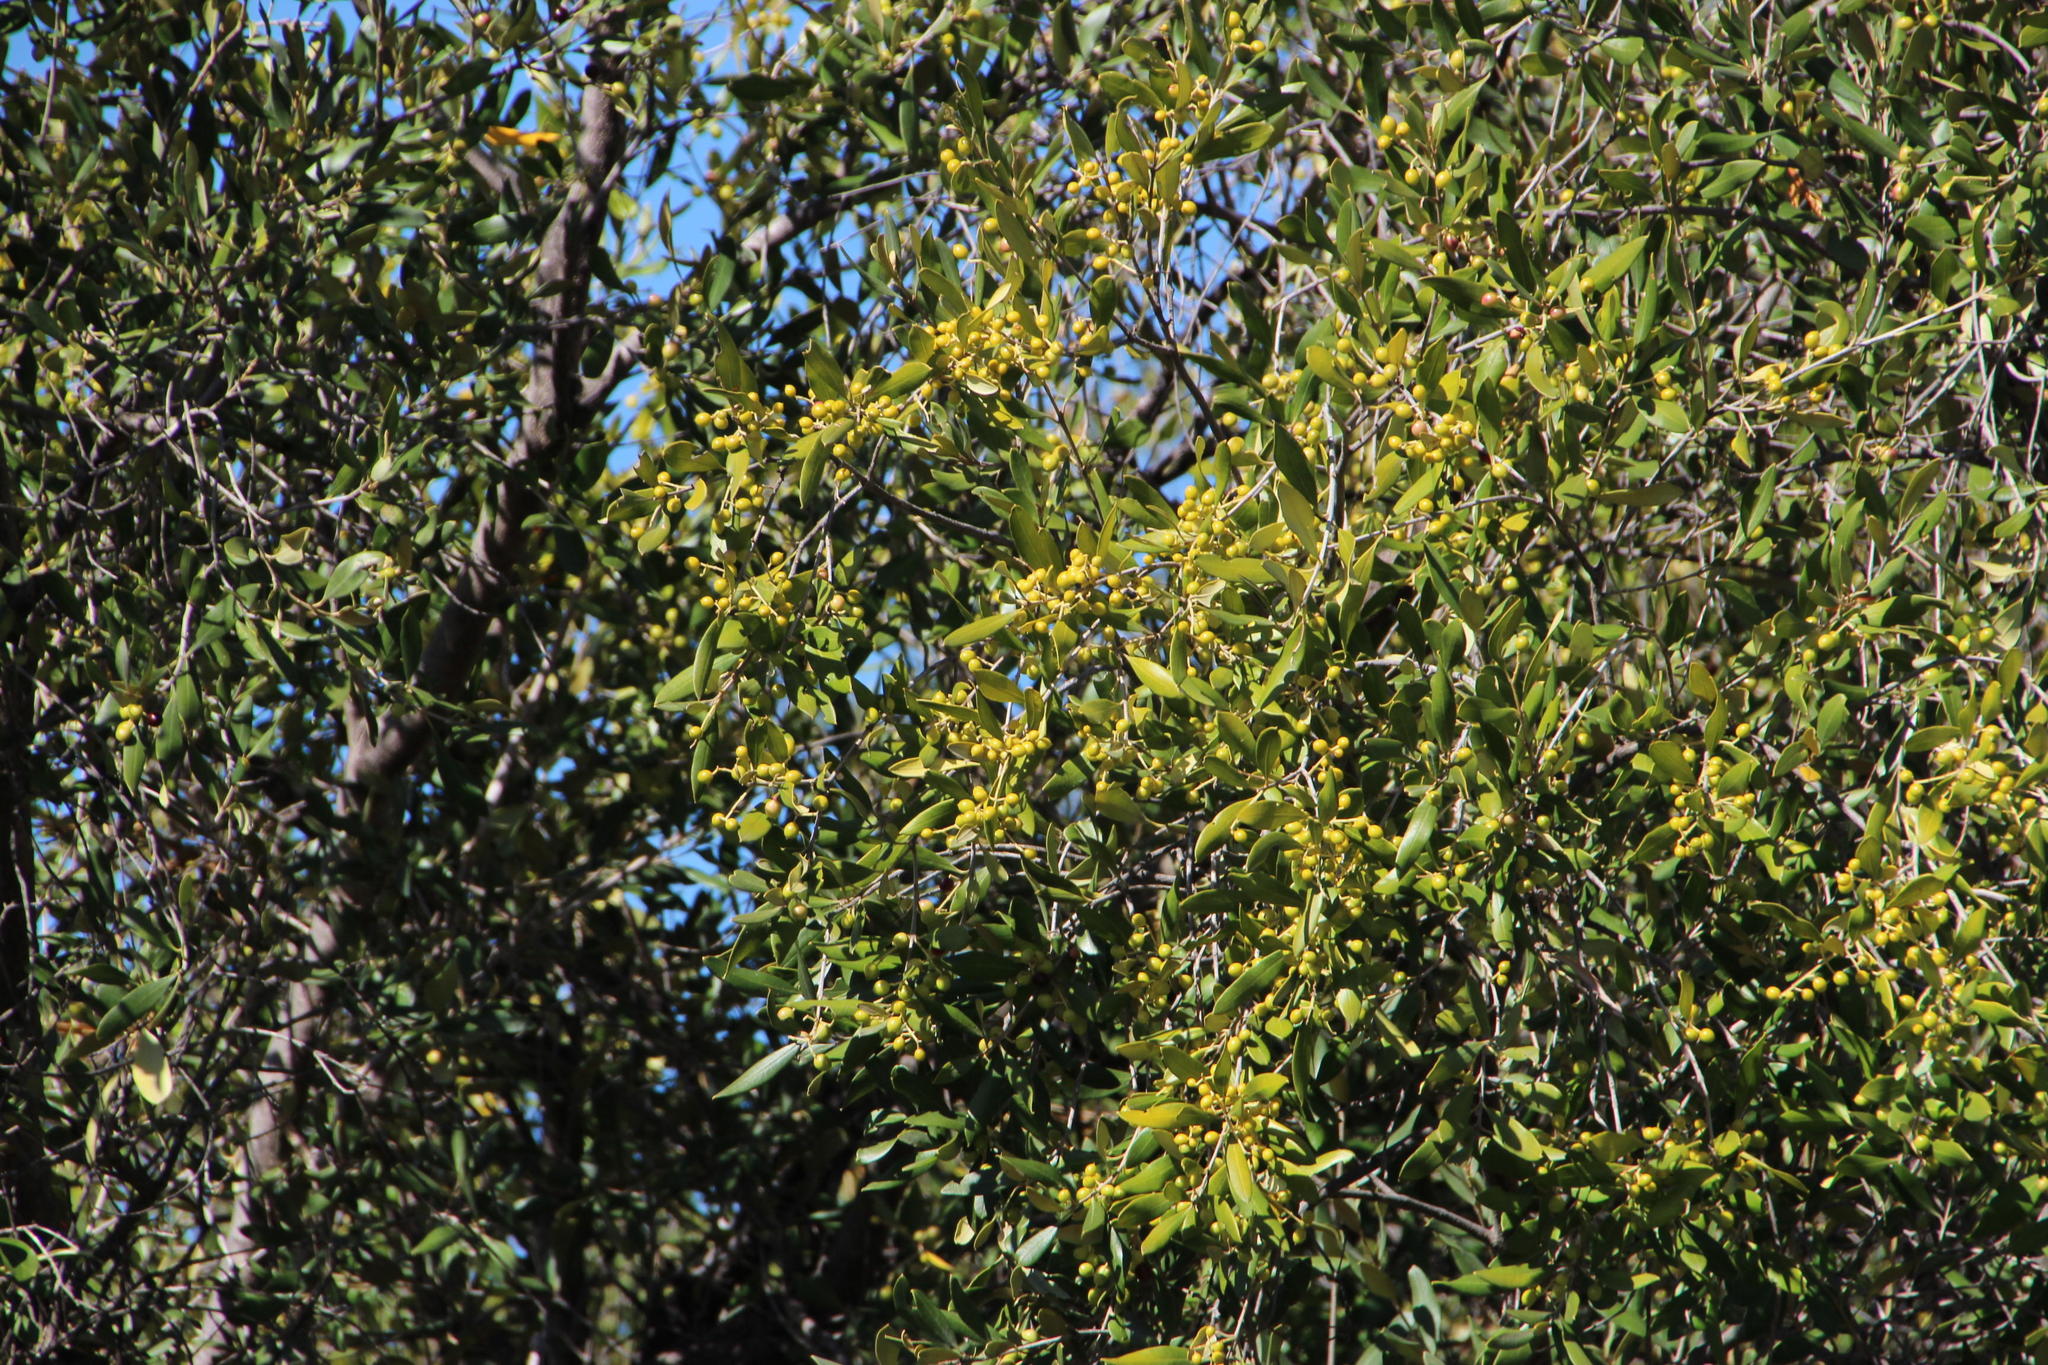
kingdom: Plantae
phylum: Tracheophyta
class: Magnoliopsida
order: Lamiales
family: Oleaceae
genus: Olea
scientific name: Olea europaea
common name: Olive
